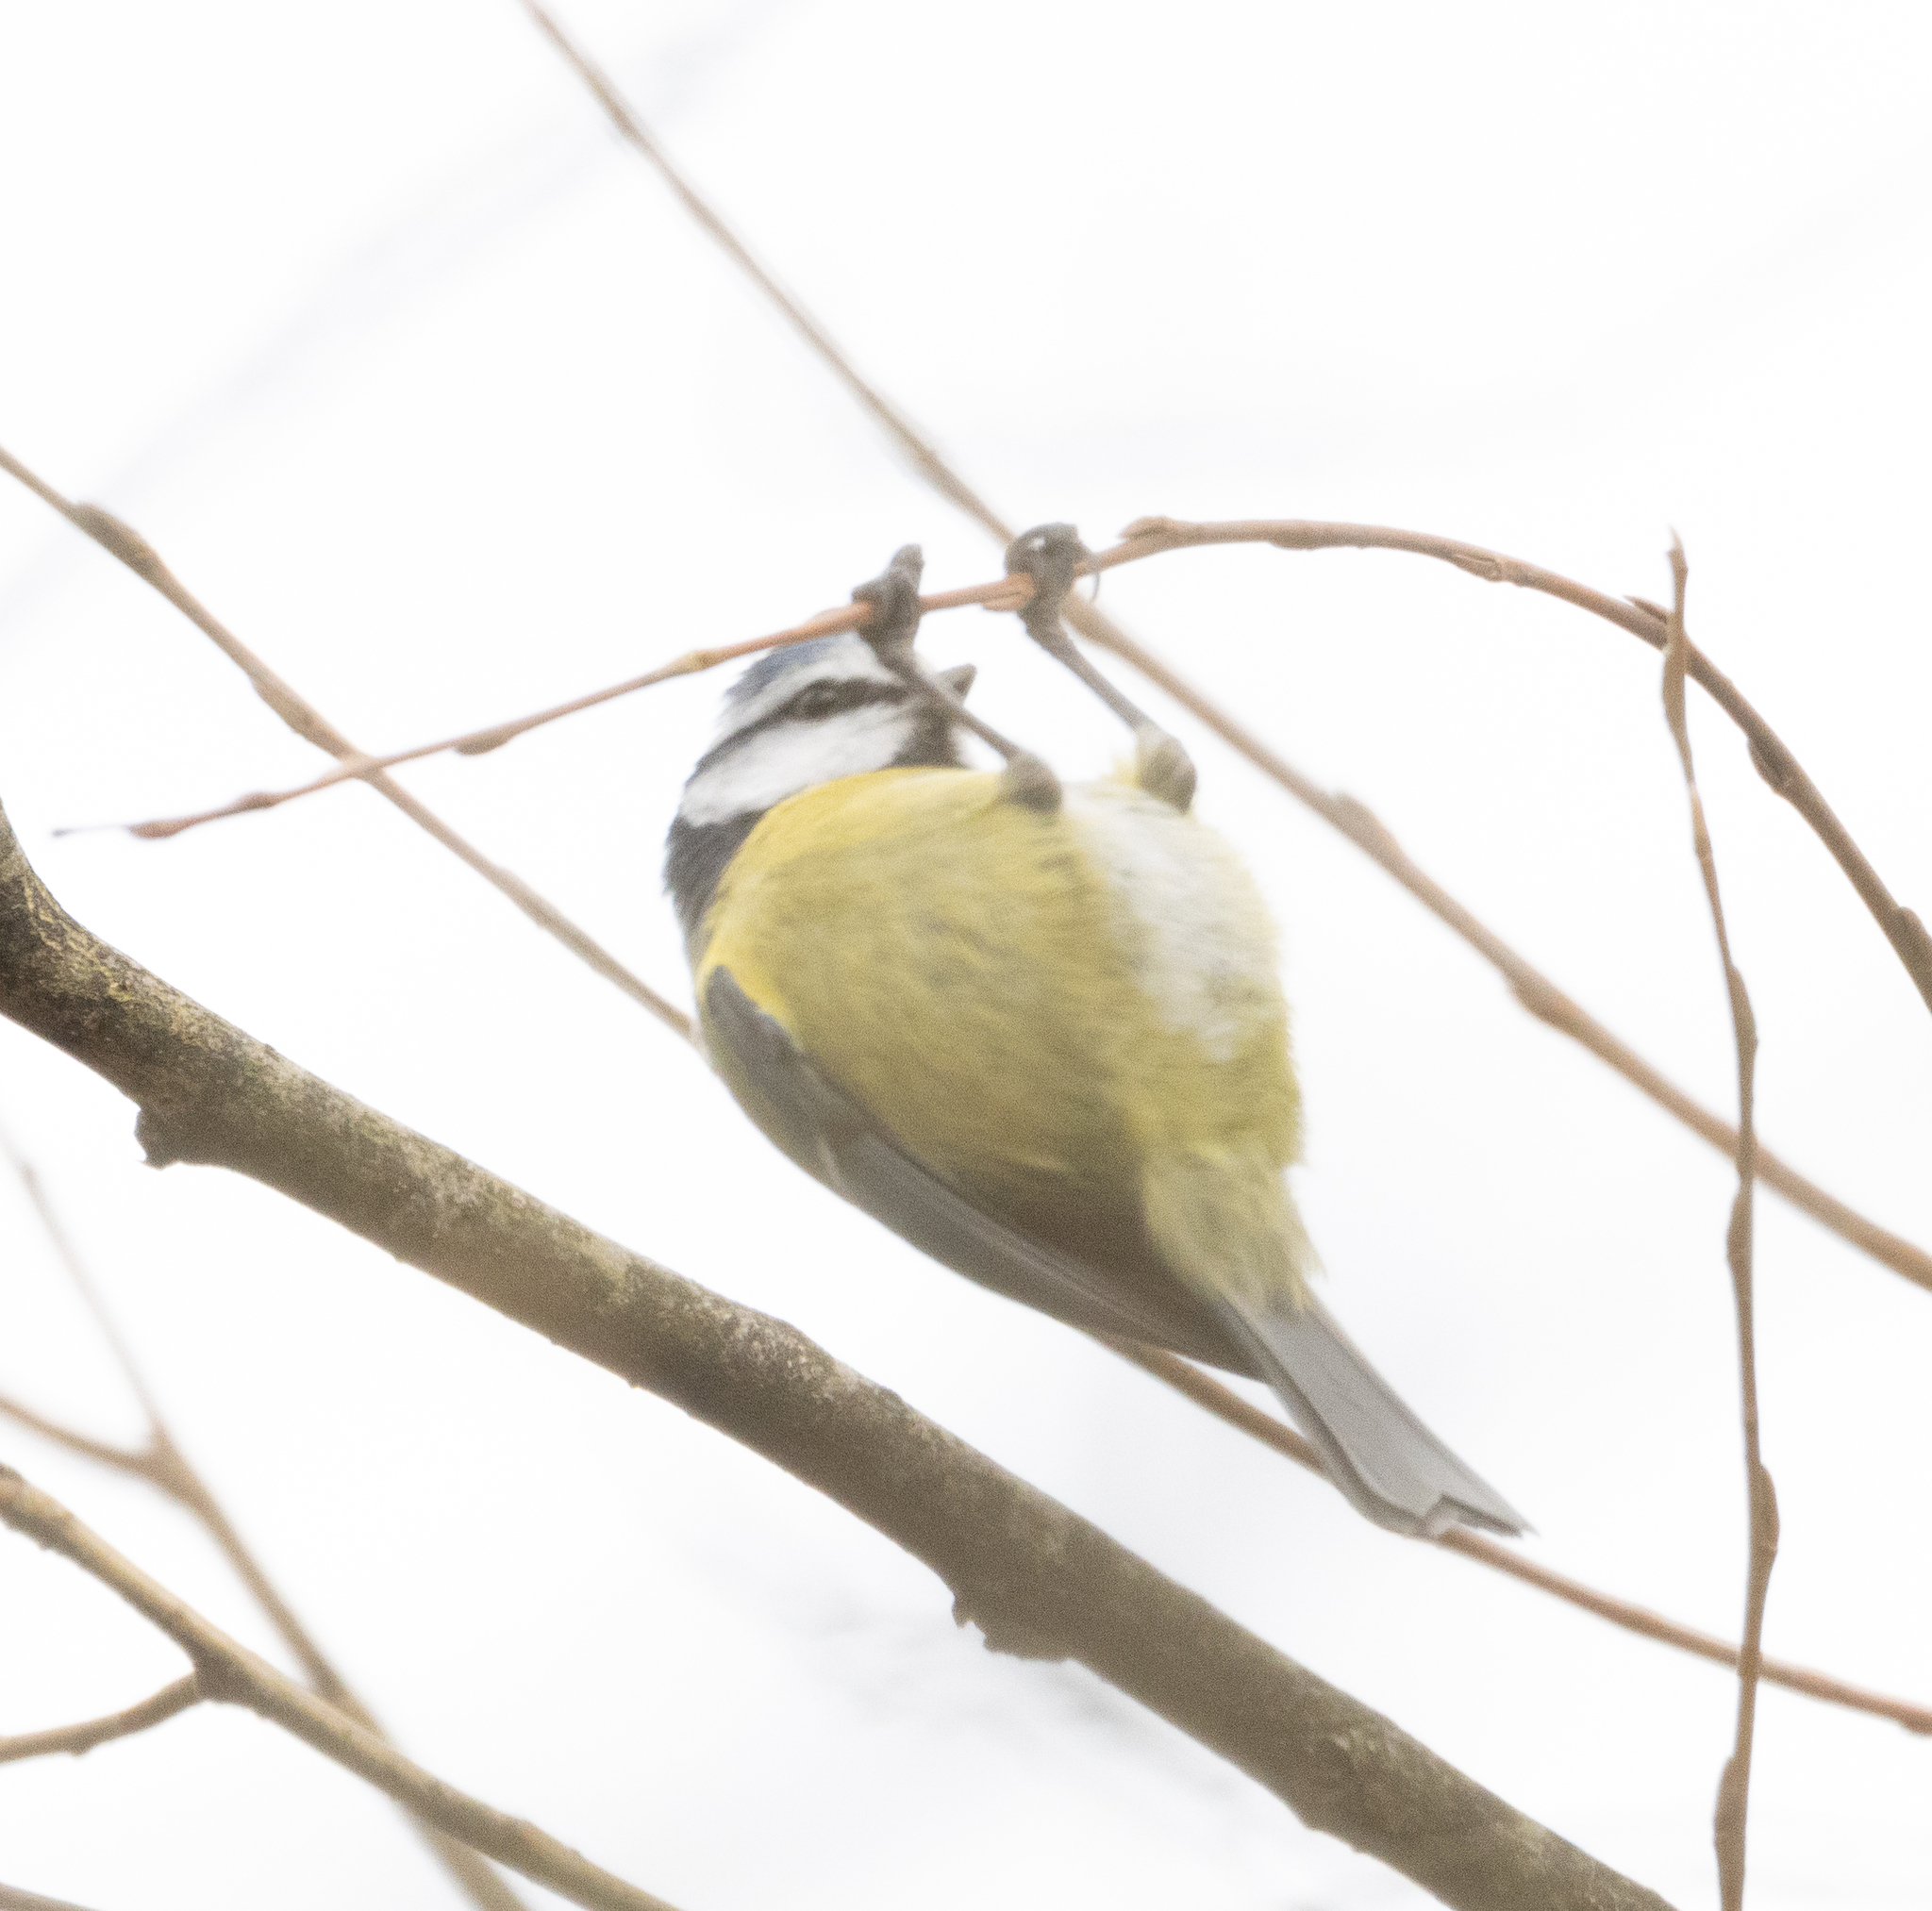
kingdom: Animalia
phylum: Chordata
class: Aves
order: Passeriformes
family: Paridae
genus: Cyanistes
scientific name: Cyanistes caeruleus
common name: Eurasian blue tit
